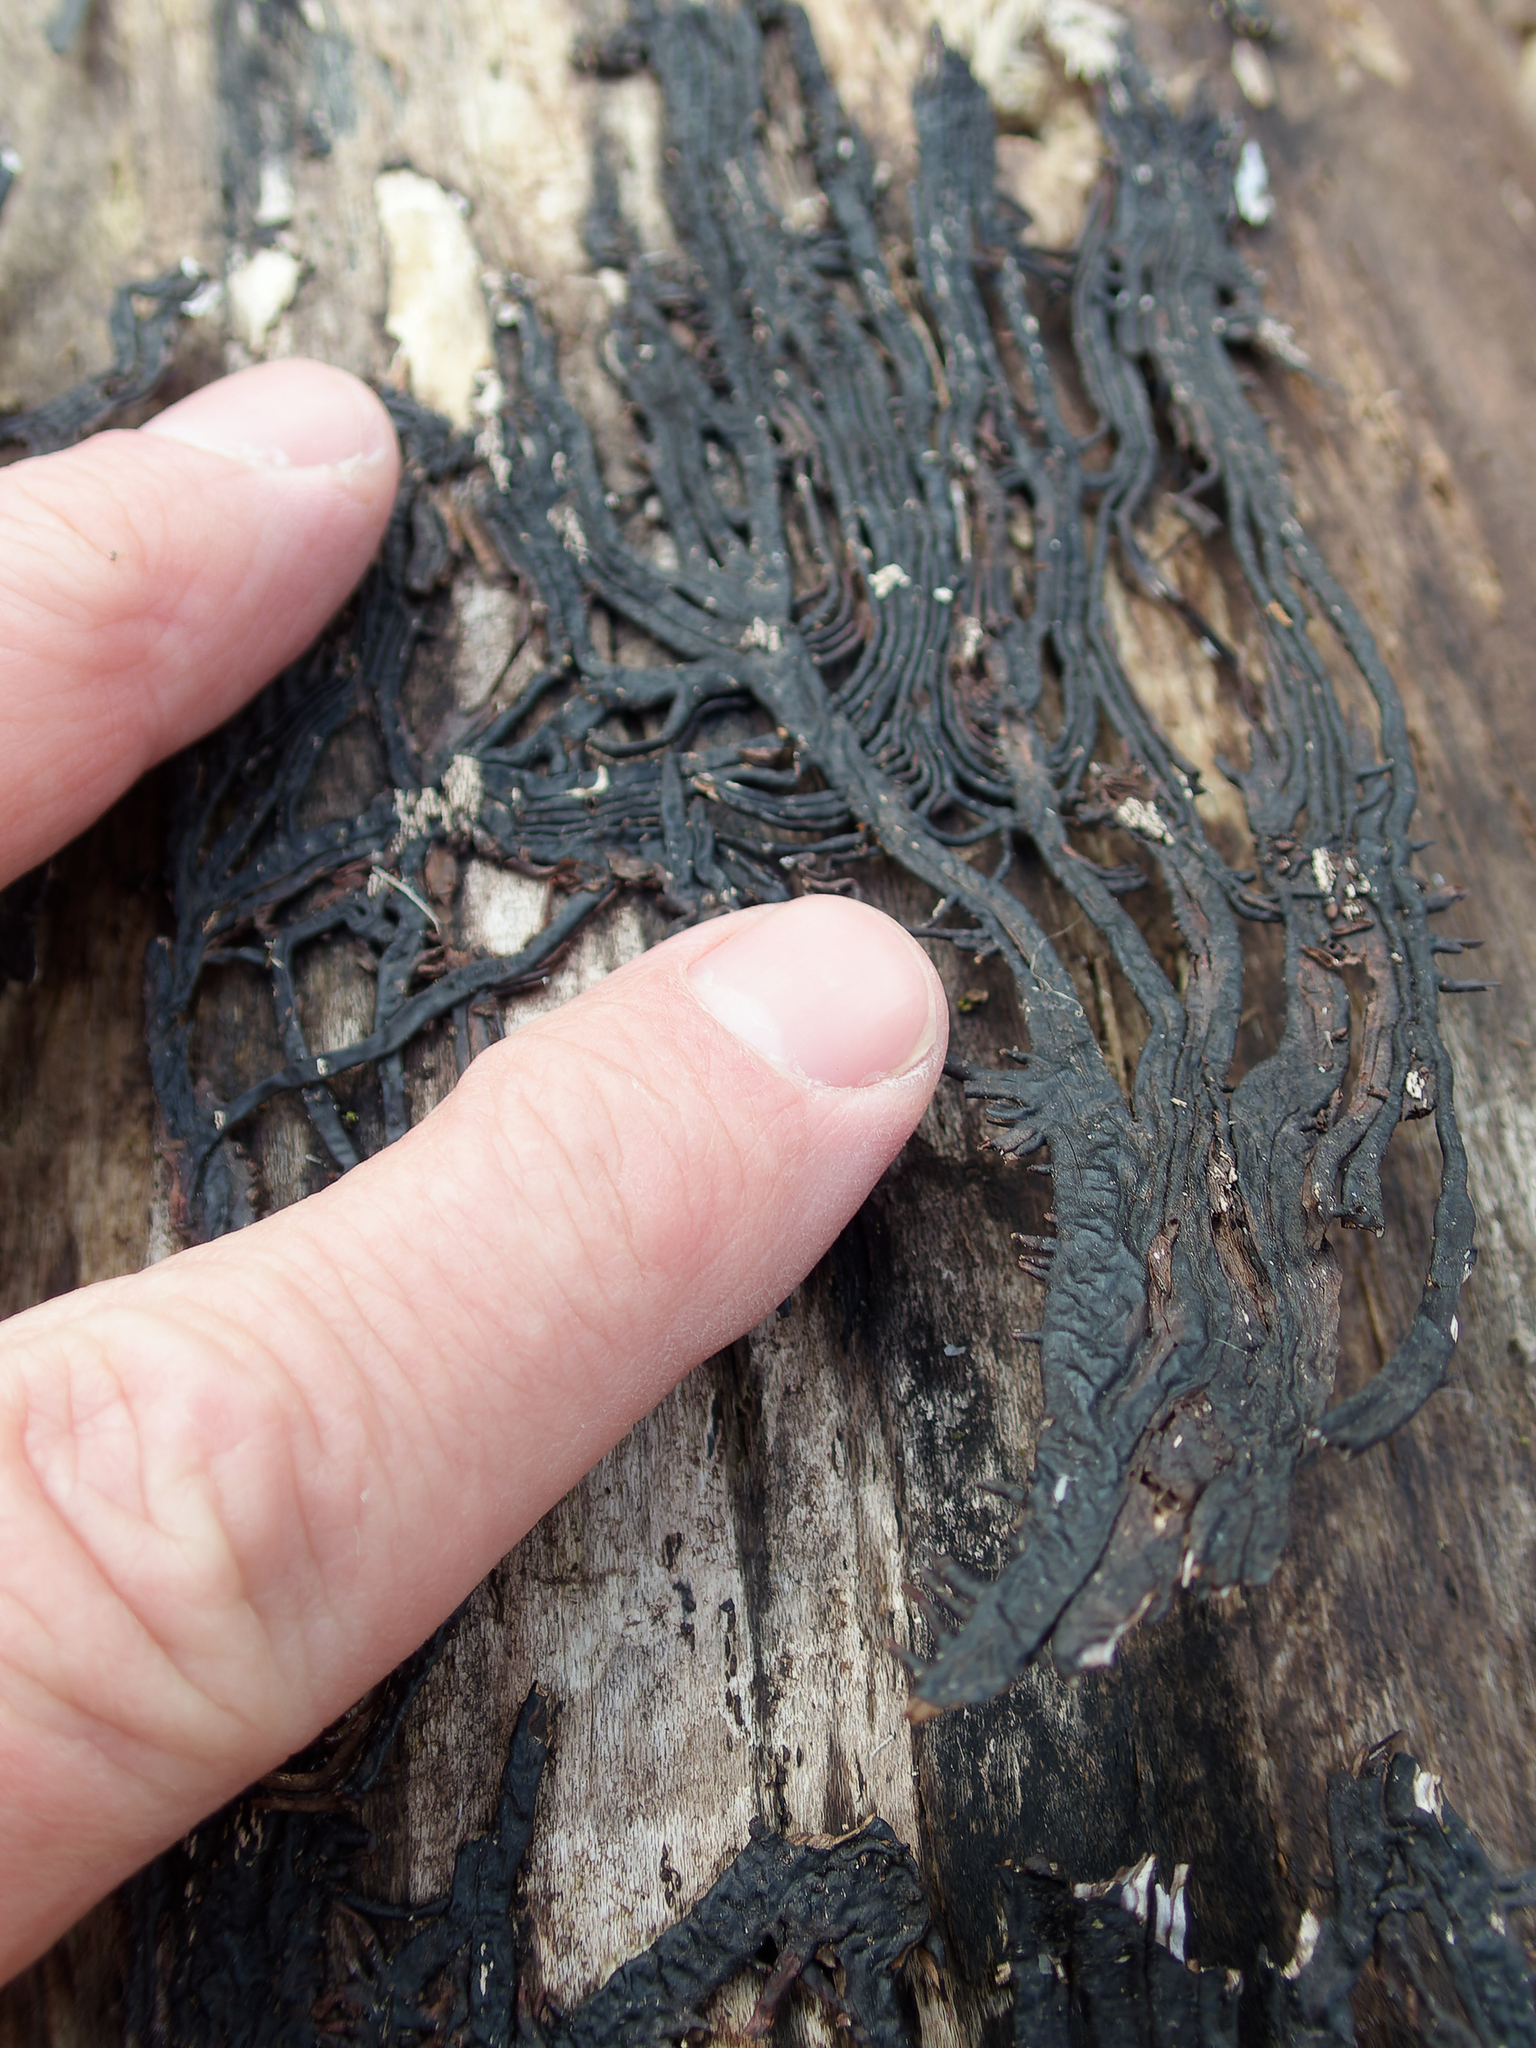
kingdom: Fungi
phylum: Basidiomycota
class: Agaricomycetes
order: Agaricales
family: Physalacriaceae
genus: Armillaria
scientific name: Armillaria mellea
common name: Honey fungus
